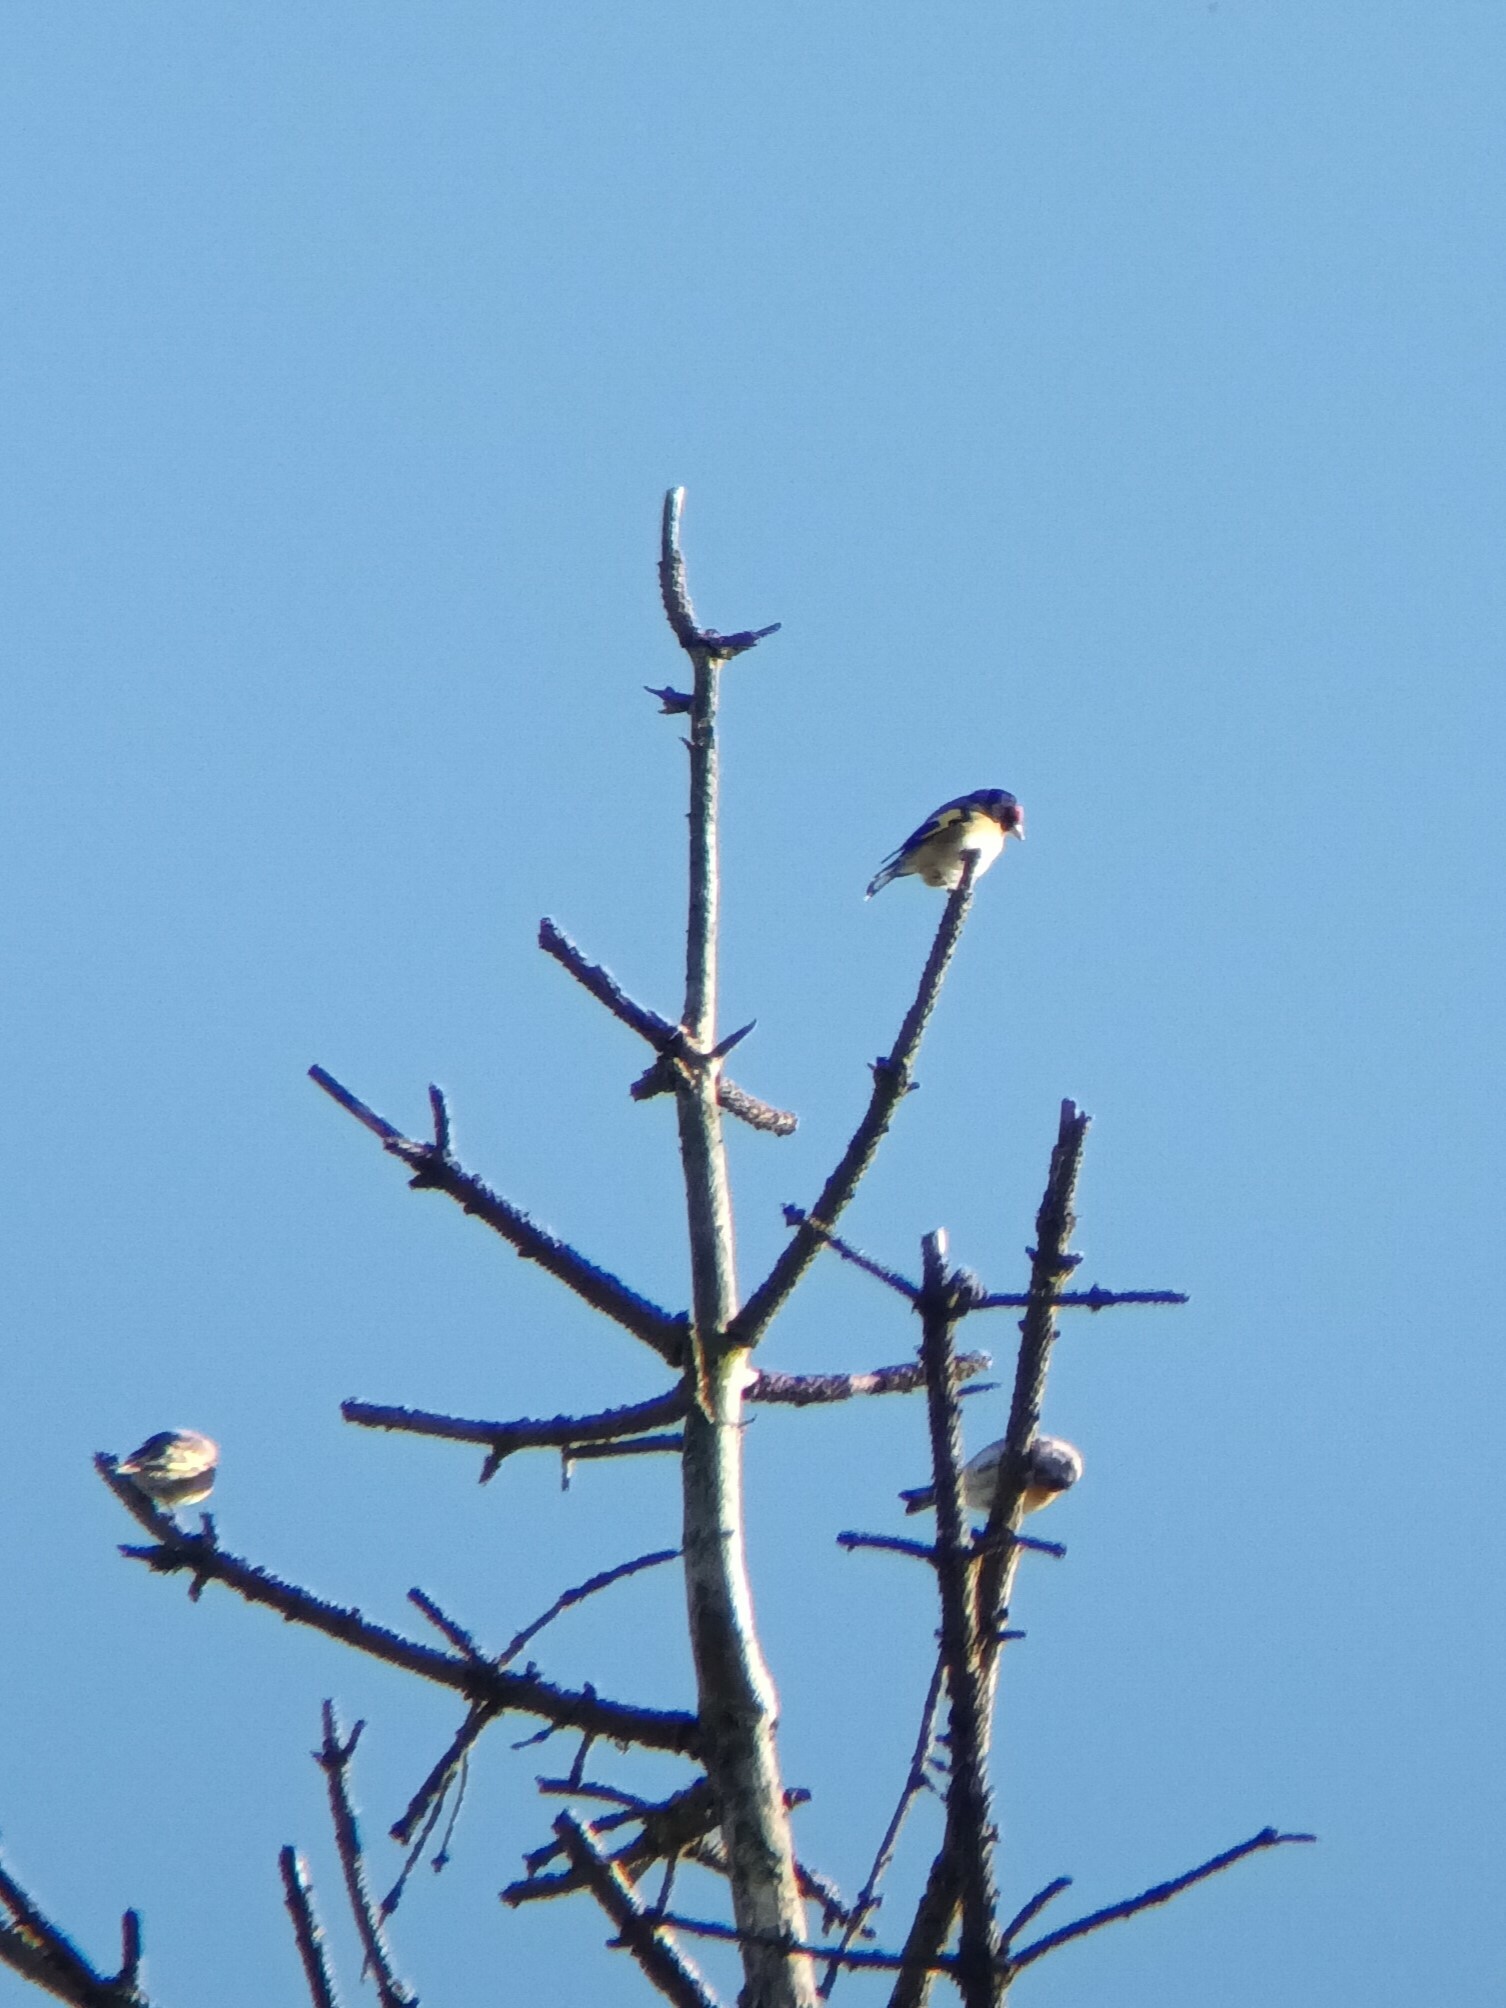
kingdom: Animalia
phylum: Chordata
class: Aves
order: Passeriformes
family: Fringillidae
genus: Carduelis
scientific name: Carduelis carduelis
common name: European goldfinch
